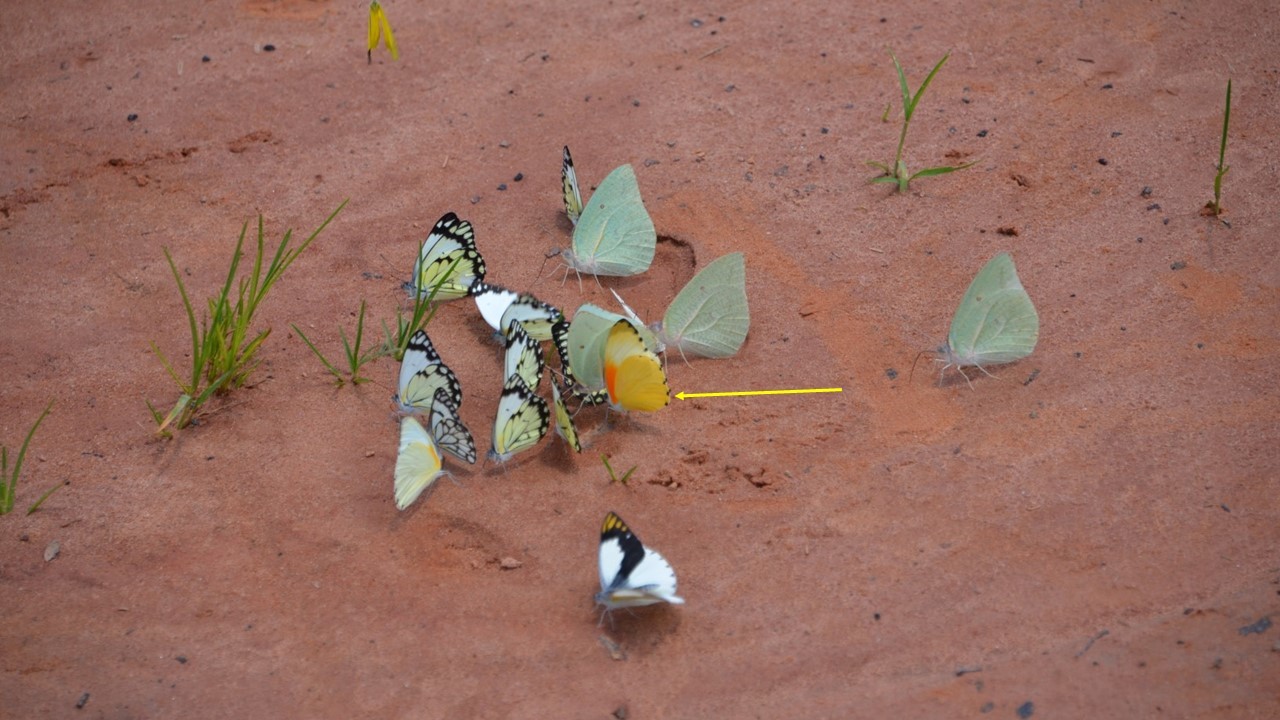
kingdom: Animalia
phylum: Arthropoda
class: Insecta
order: Lepidoptera
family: Pieridae
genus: Mylothris
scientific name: Mylothris agathina
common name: Eastern dotted border
